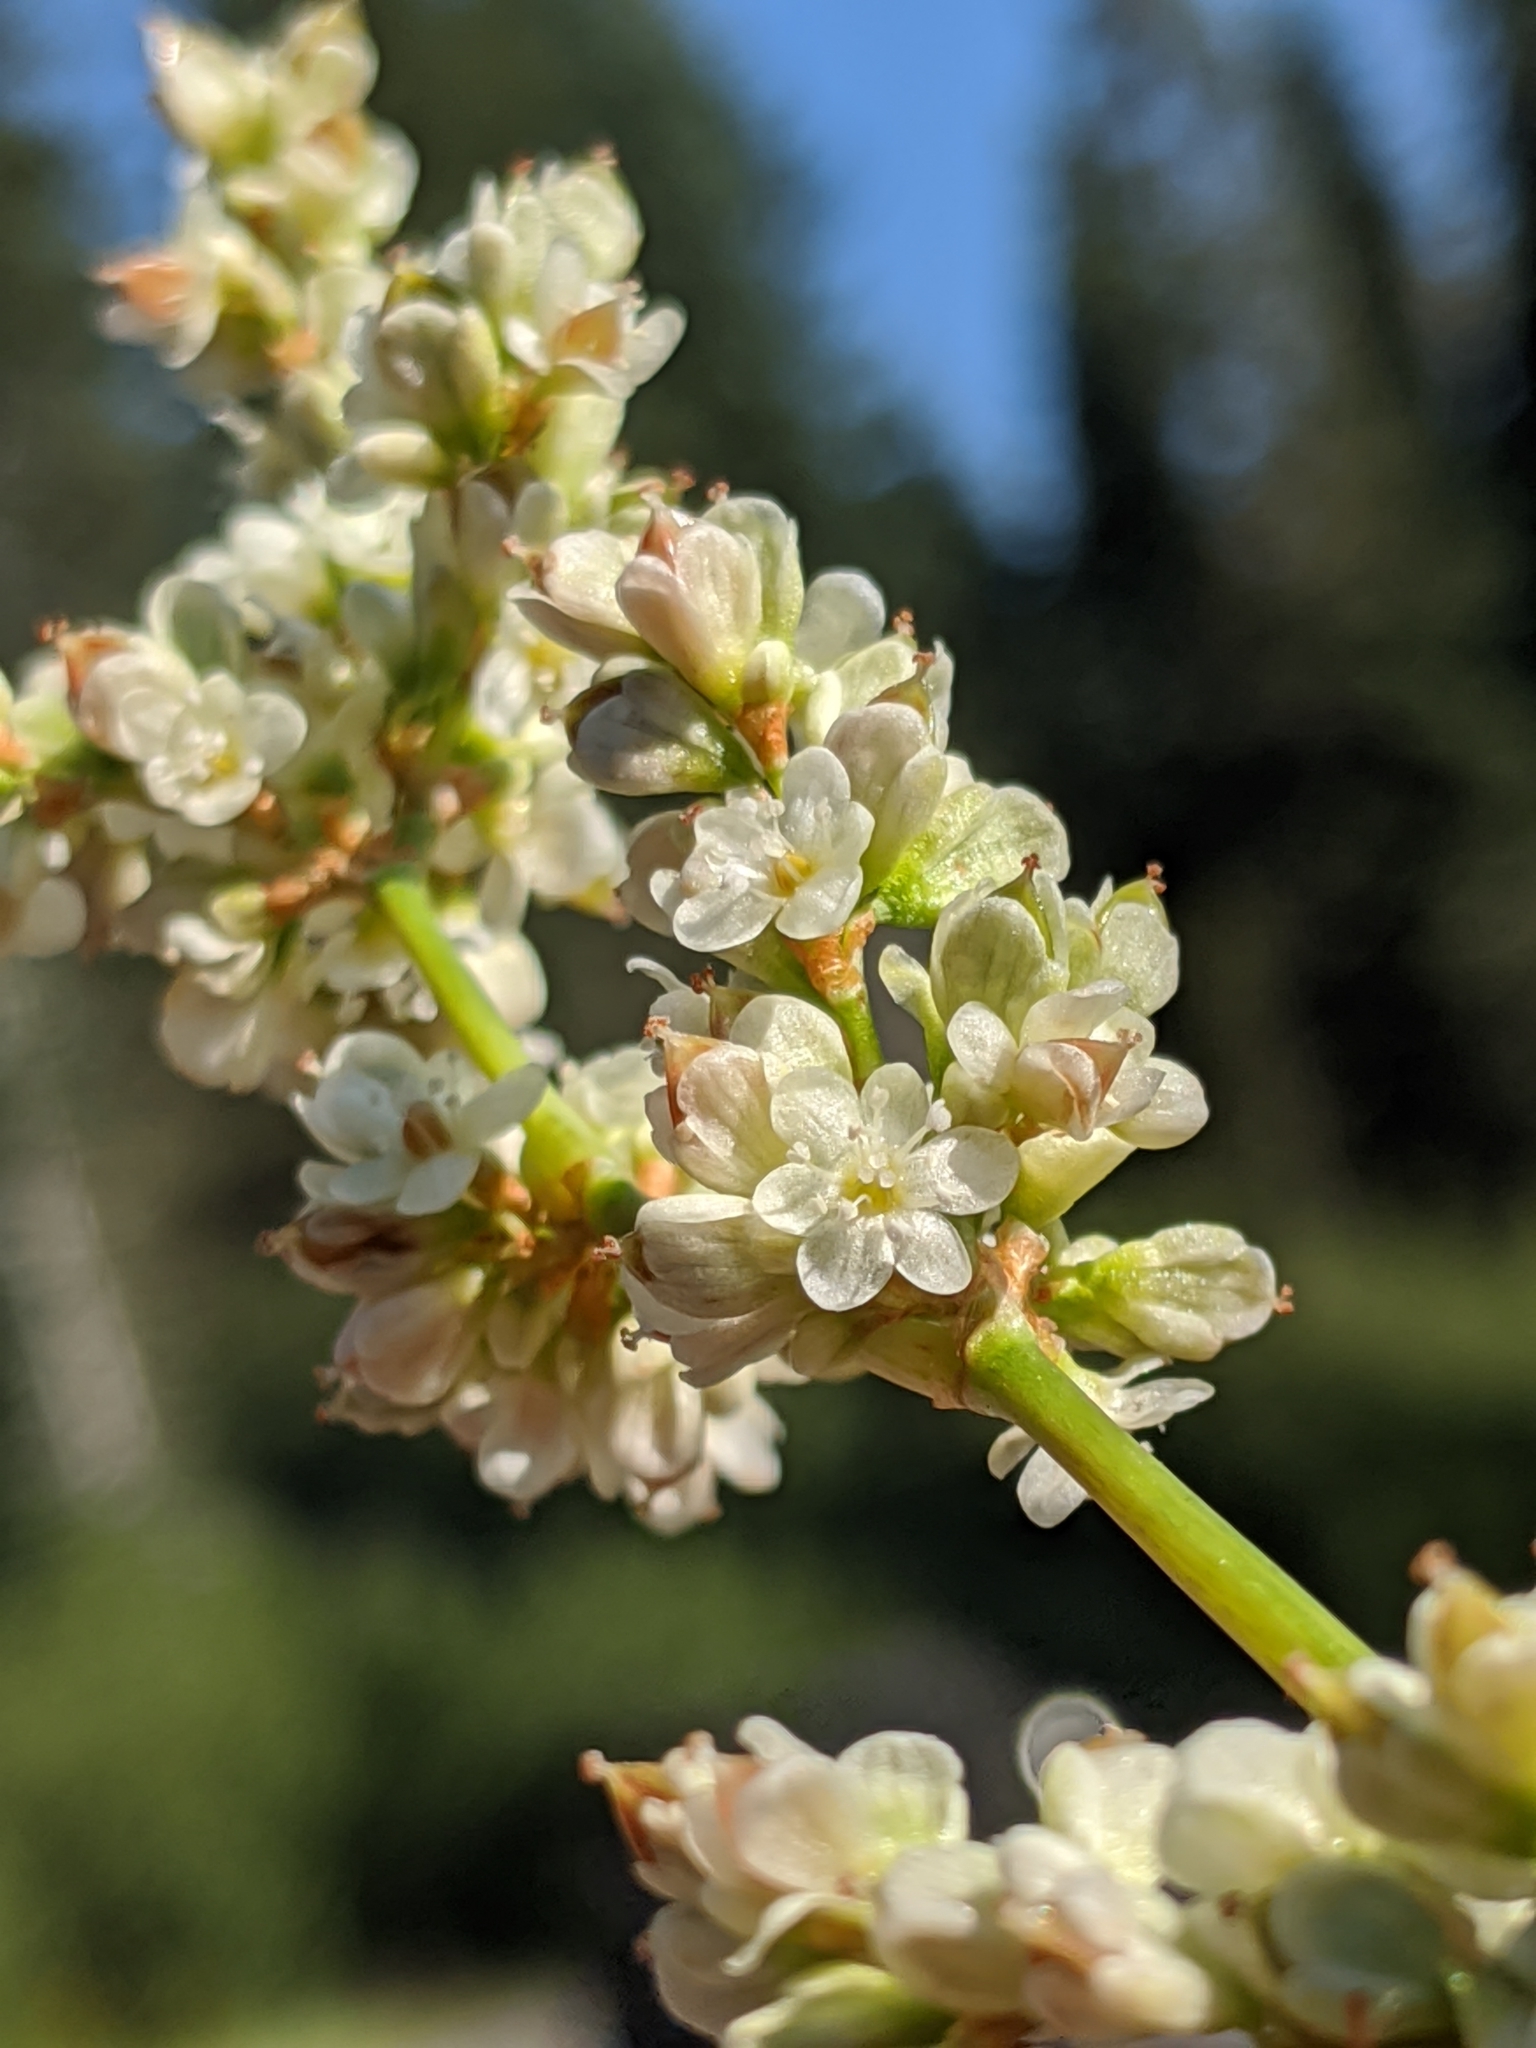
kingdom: Plantae
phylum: Tracheophyta
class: Magnoliopsida
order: Caryophyllales
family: Polygonaceae
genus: Koenigia
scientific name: Koenigia phytolaccifolia
